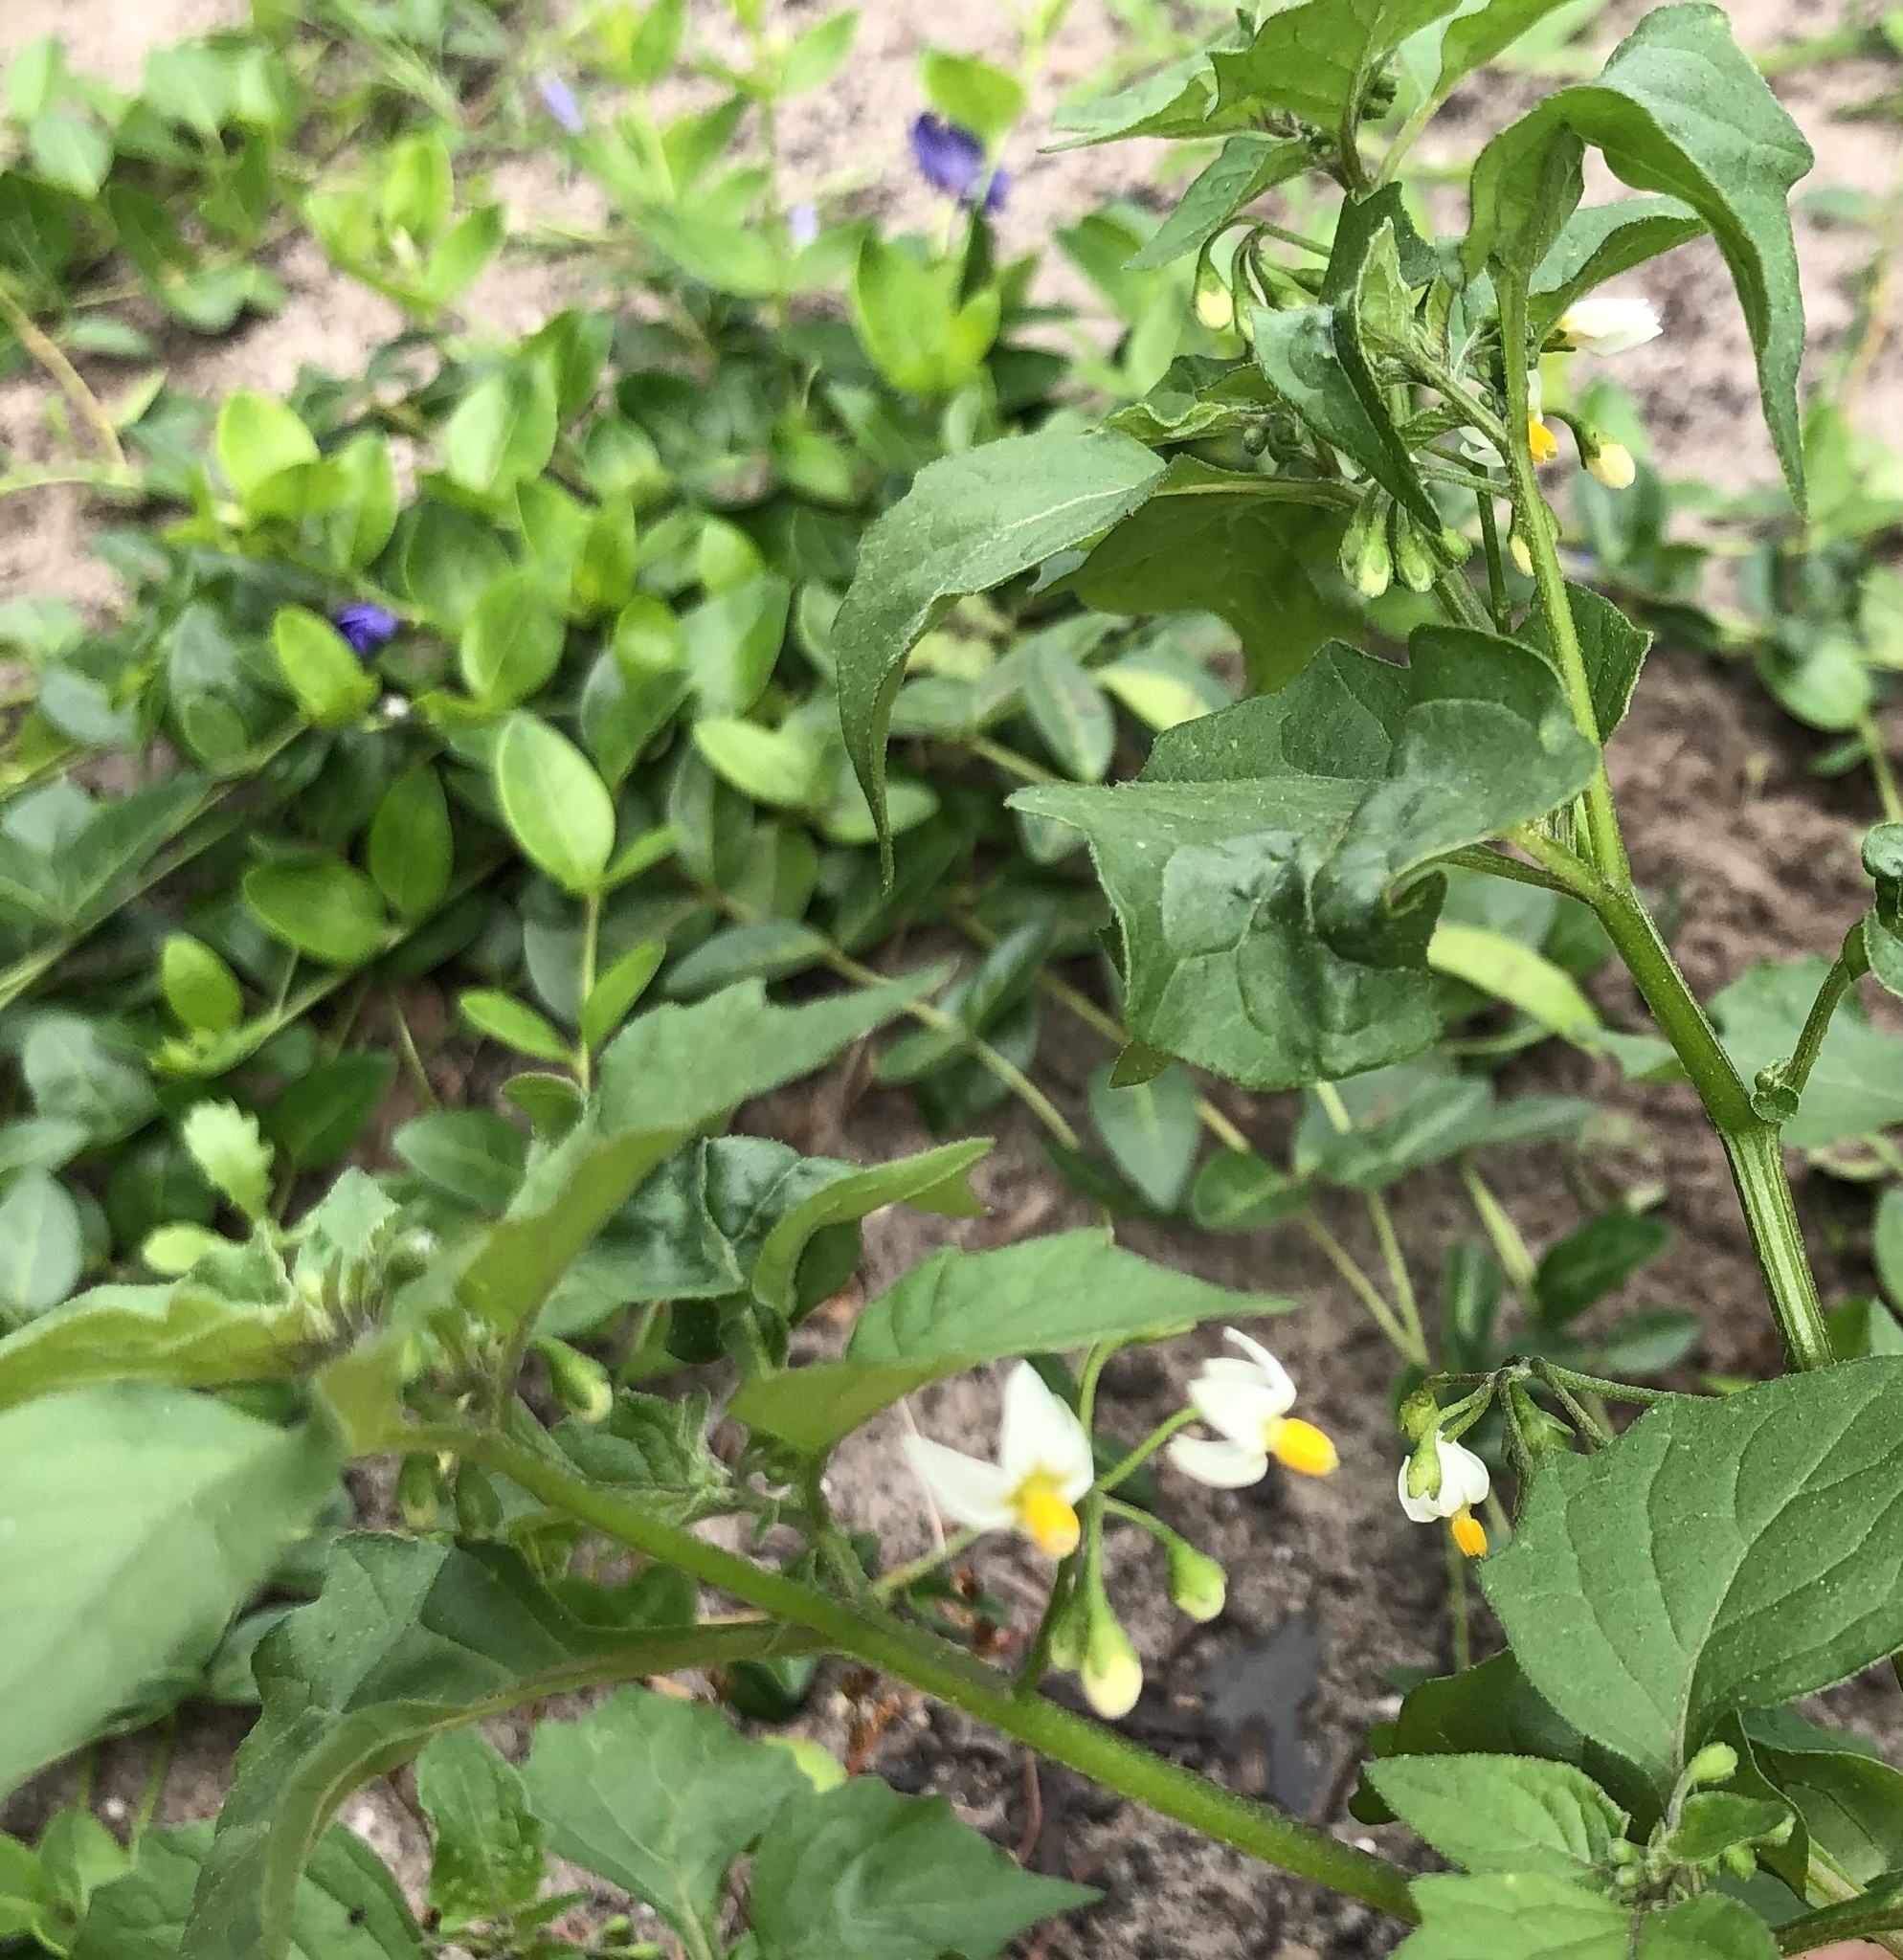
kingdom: Plantae
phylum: Tracheophyta
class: Magnoliopsida
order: Solanales
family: Solanaceae
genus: Solanum
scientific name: Solanum nigrum
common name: Black nightshade
